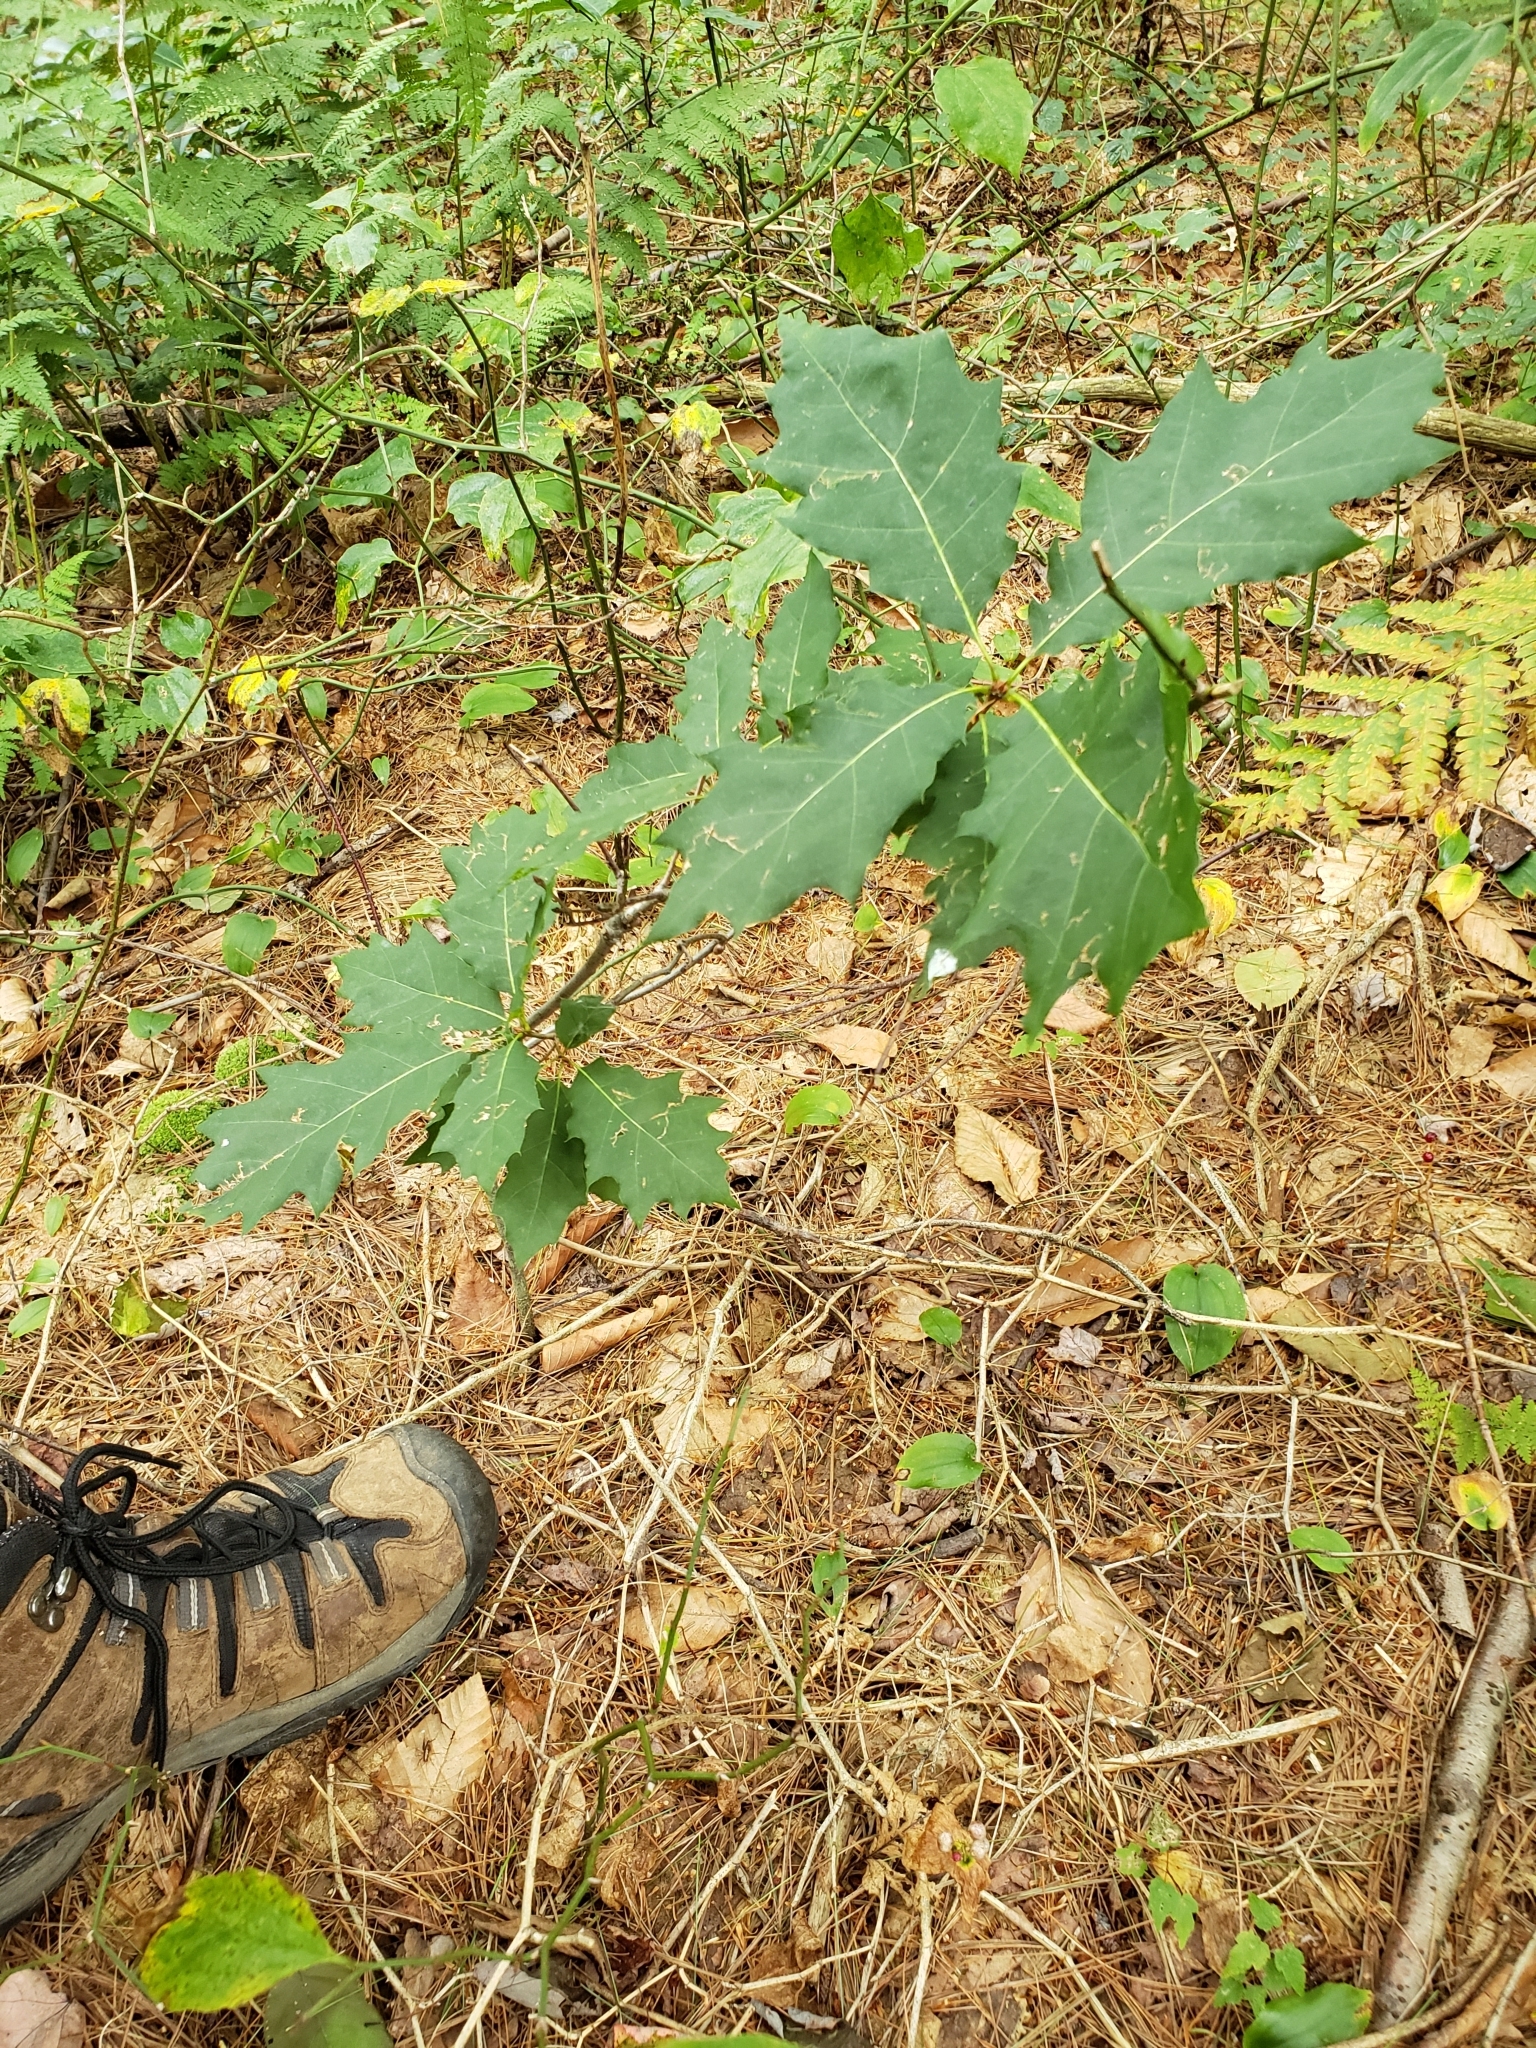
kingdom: Animalia
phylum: Arthropoda
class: Insecta
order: Hymenoptera
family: Cynipidae
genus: Callirhytis
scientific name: Callirhytis
